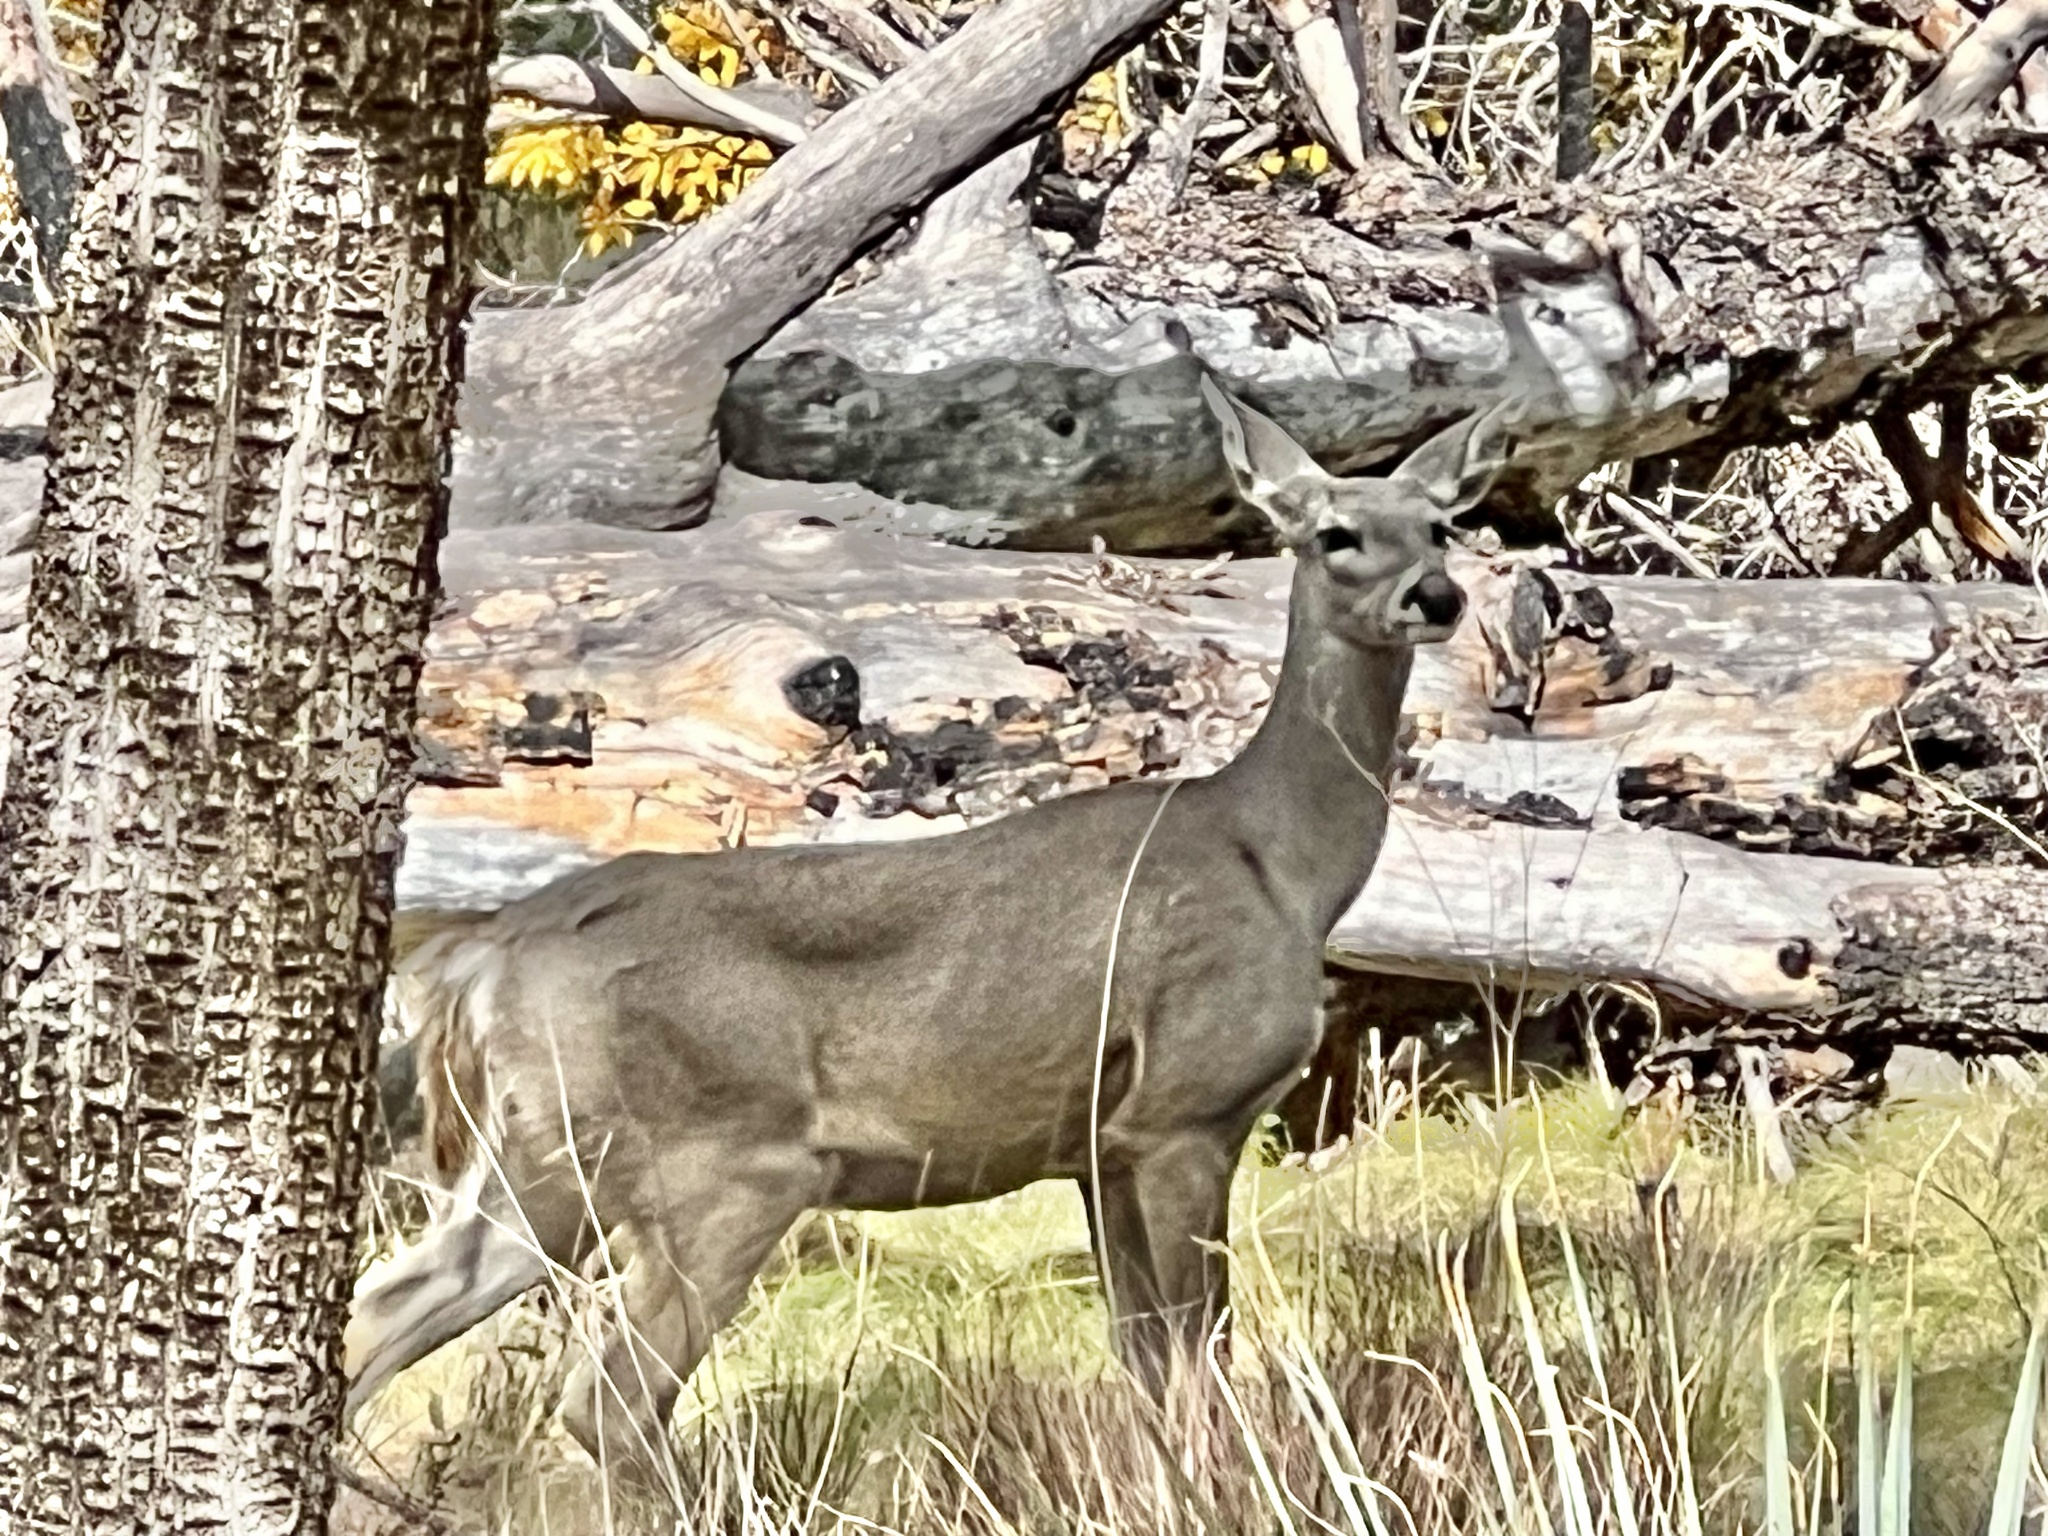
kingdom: Animalia
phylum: Chordata
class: Mammalia
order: Artiodactyla
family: Cervidae
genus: Odocoileus
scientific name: Odocoileus virginianus
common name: White-tailed deer
